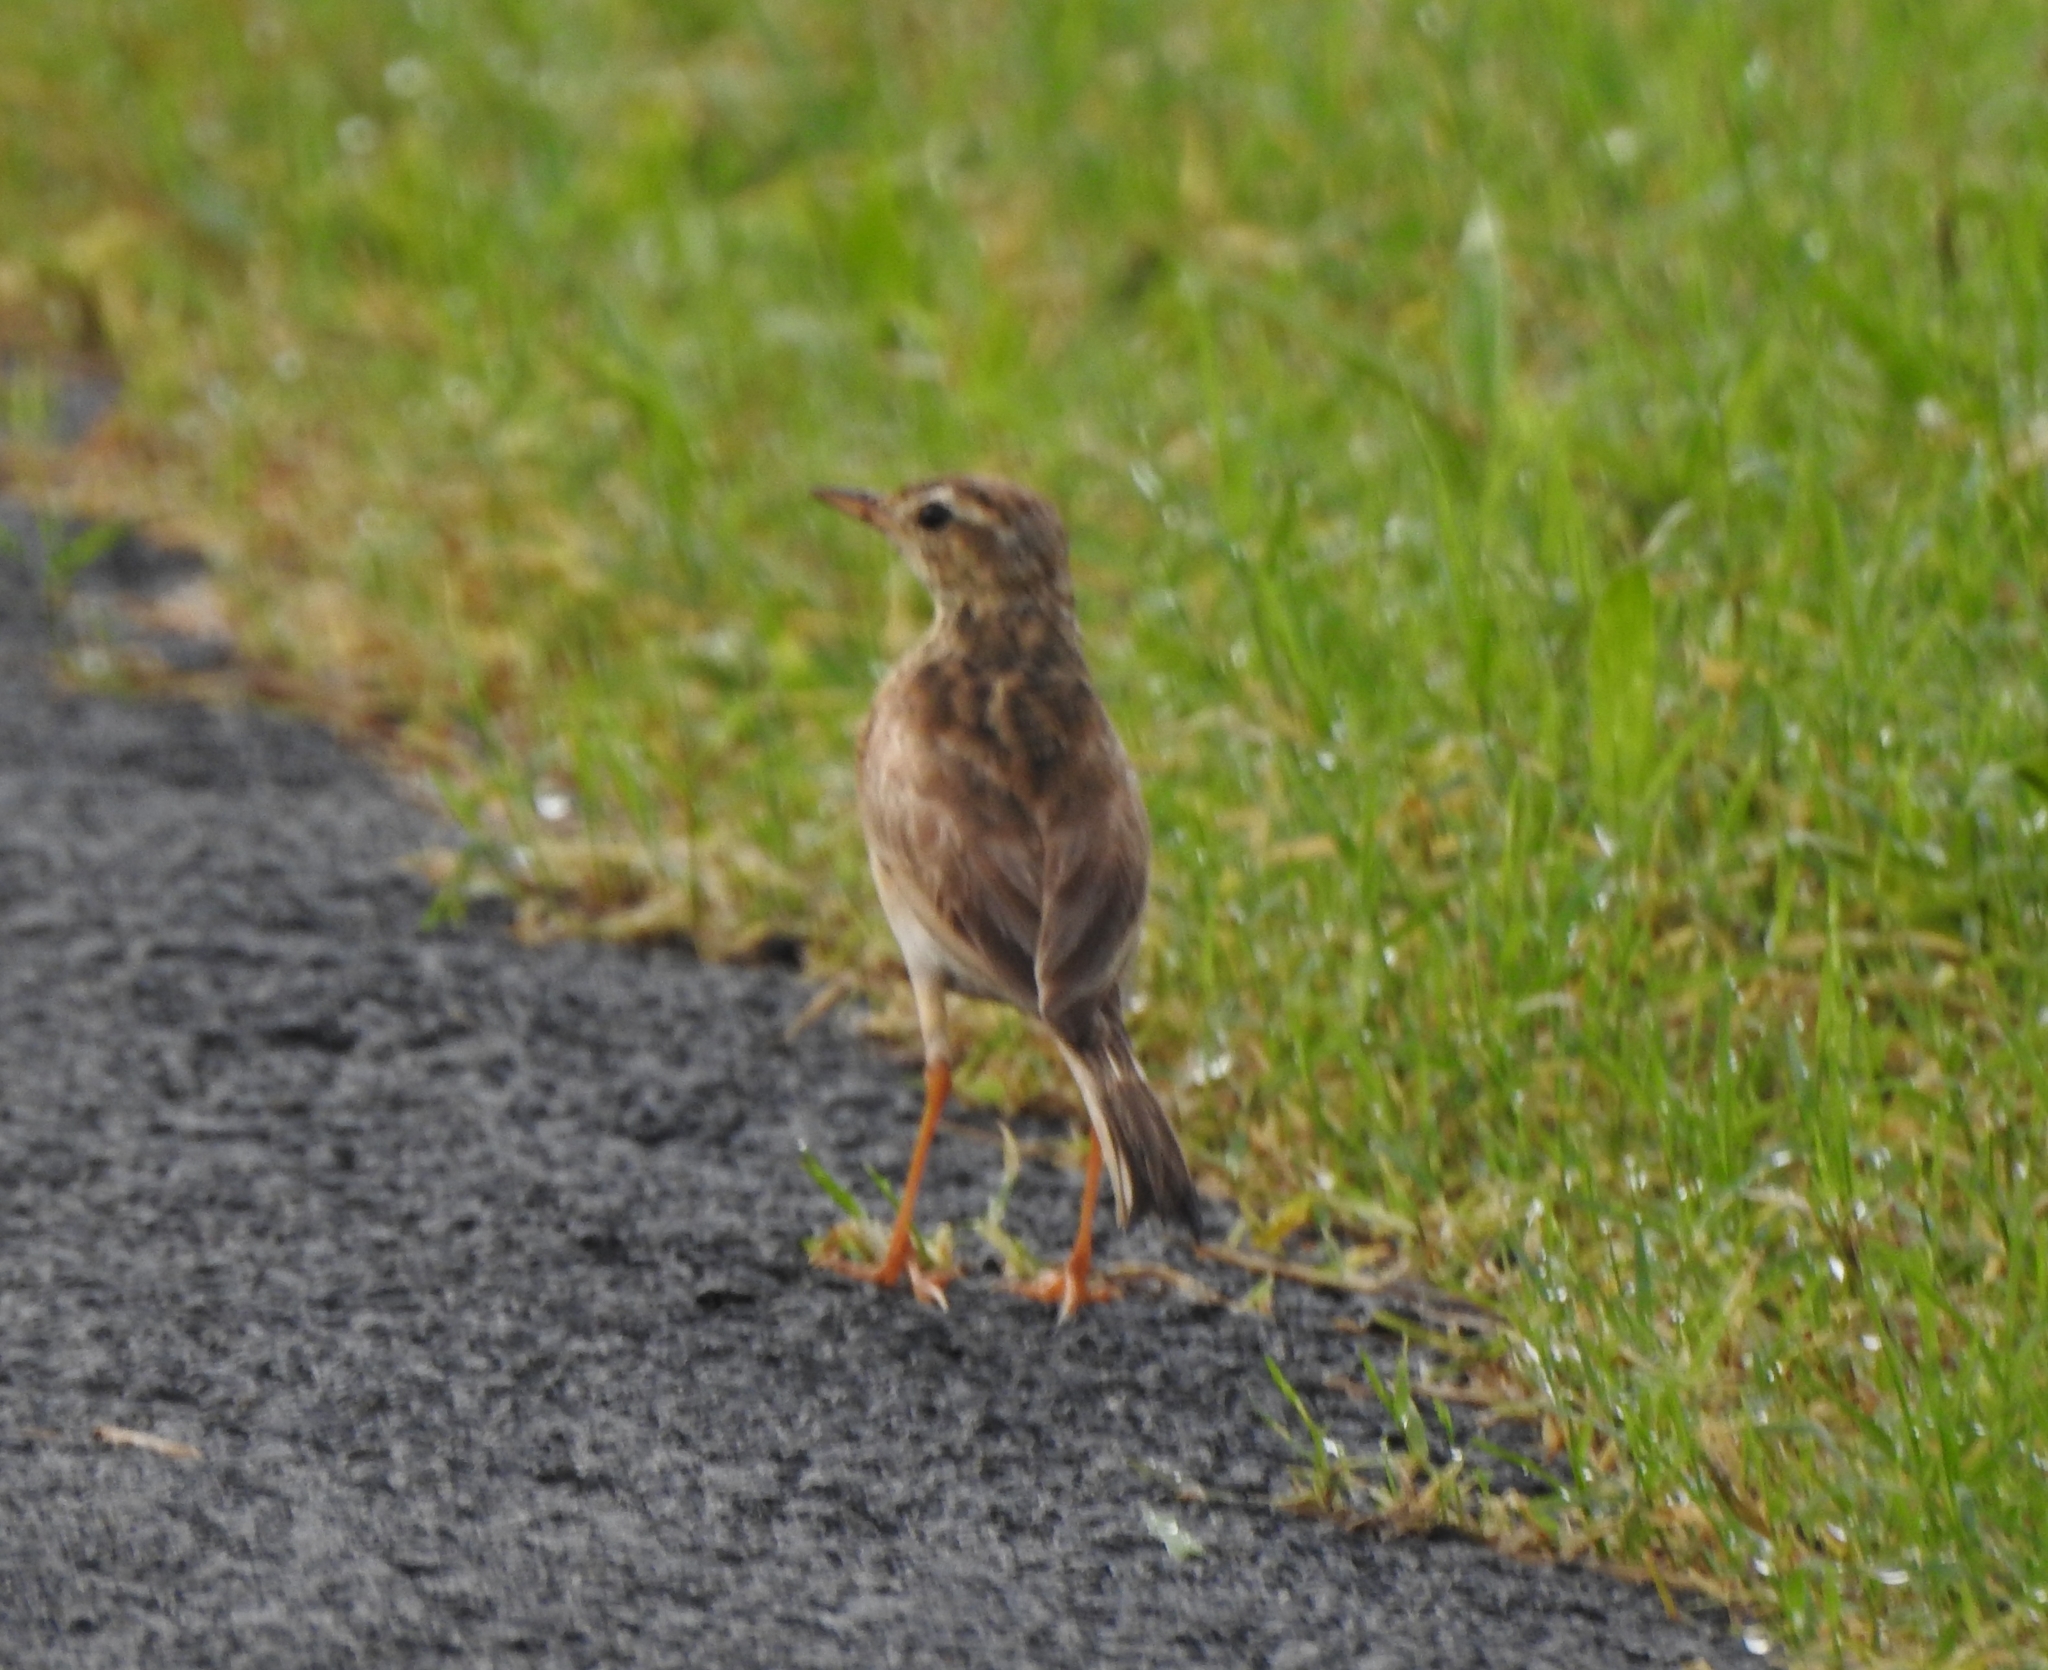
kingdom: Animalia
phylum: Chordata
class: Aves
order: Passeriformes
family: Motacillidae
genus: Anthus
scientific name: Anthus rufulus
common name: Paddyfield pipit
